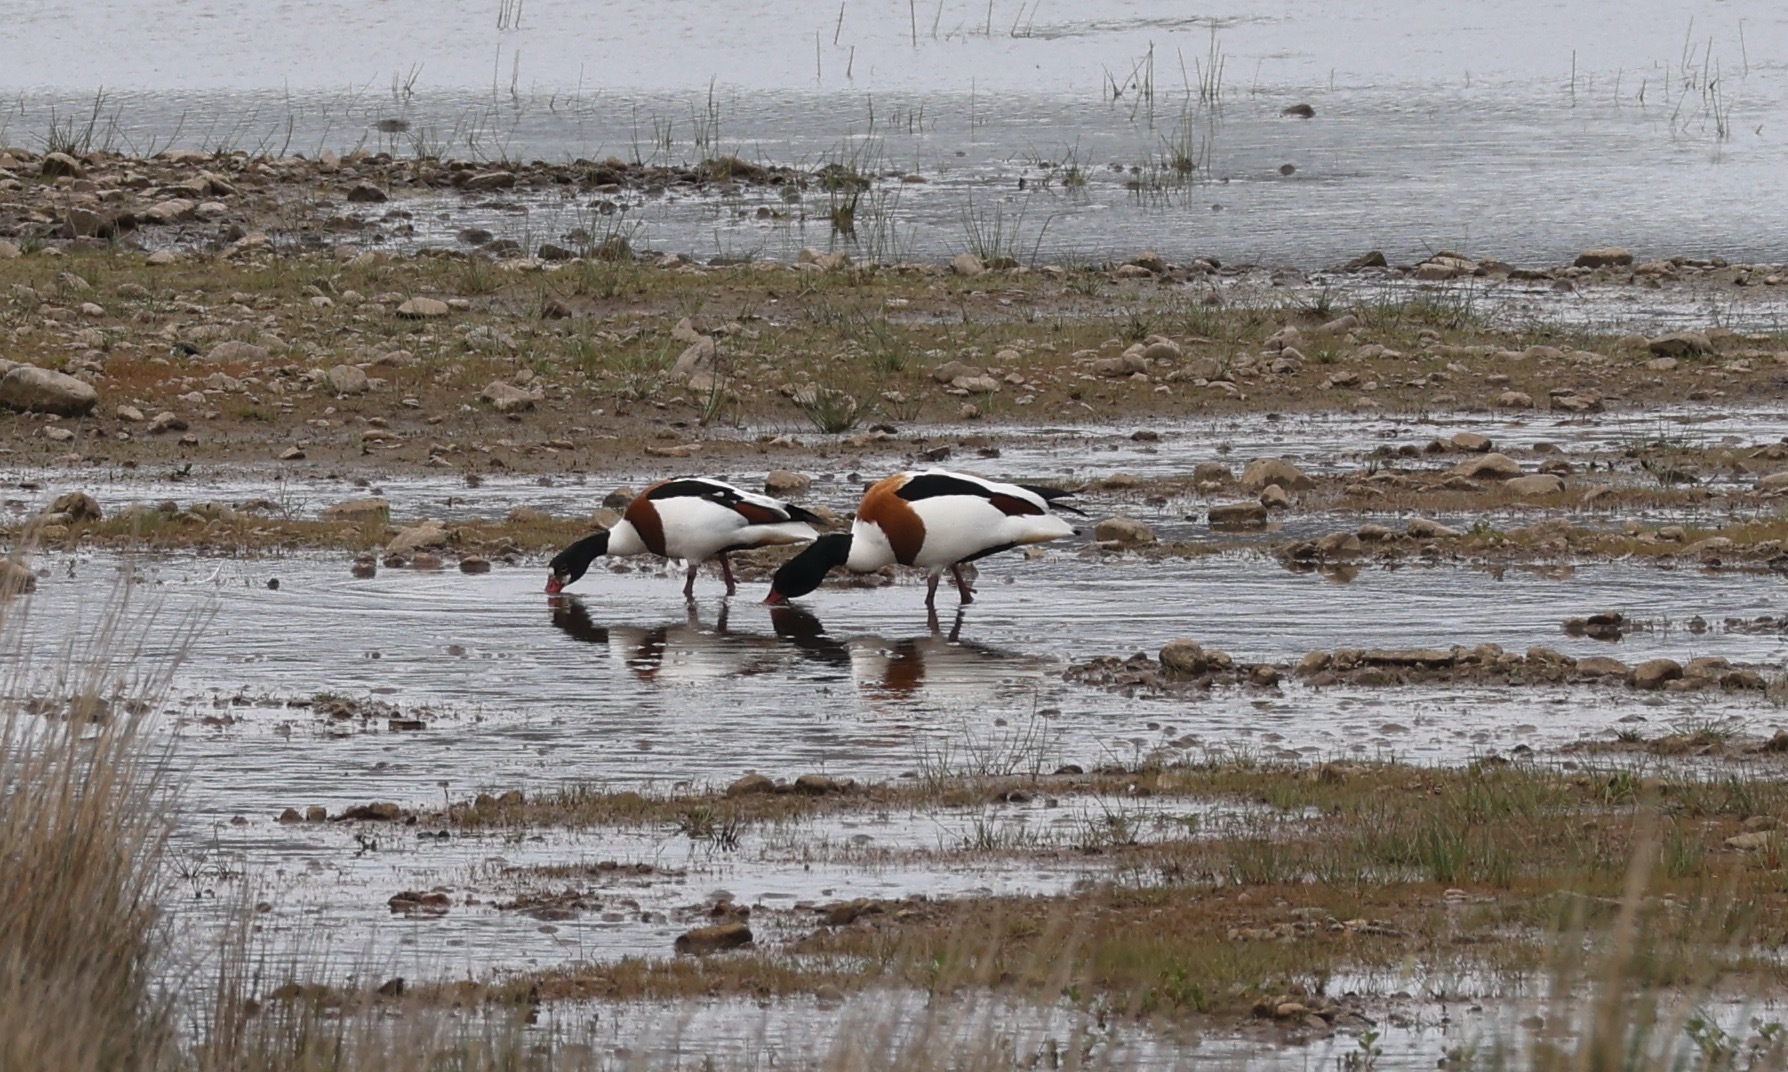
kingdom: Animalia
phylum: Chordata
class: Aves
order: Anseriformes
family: Anatidae
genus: Tadorna
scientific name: Tadorna tadorna
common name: Common shelduck
